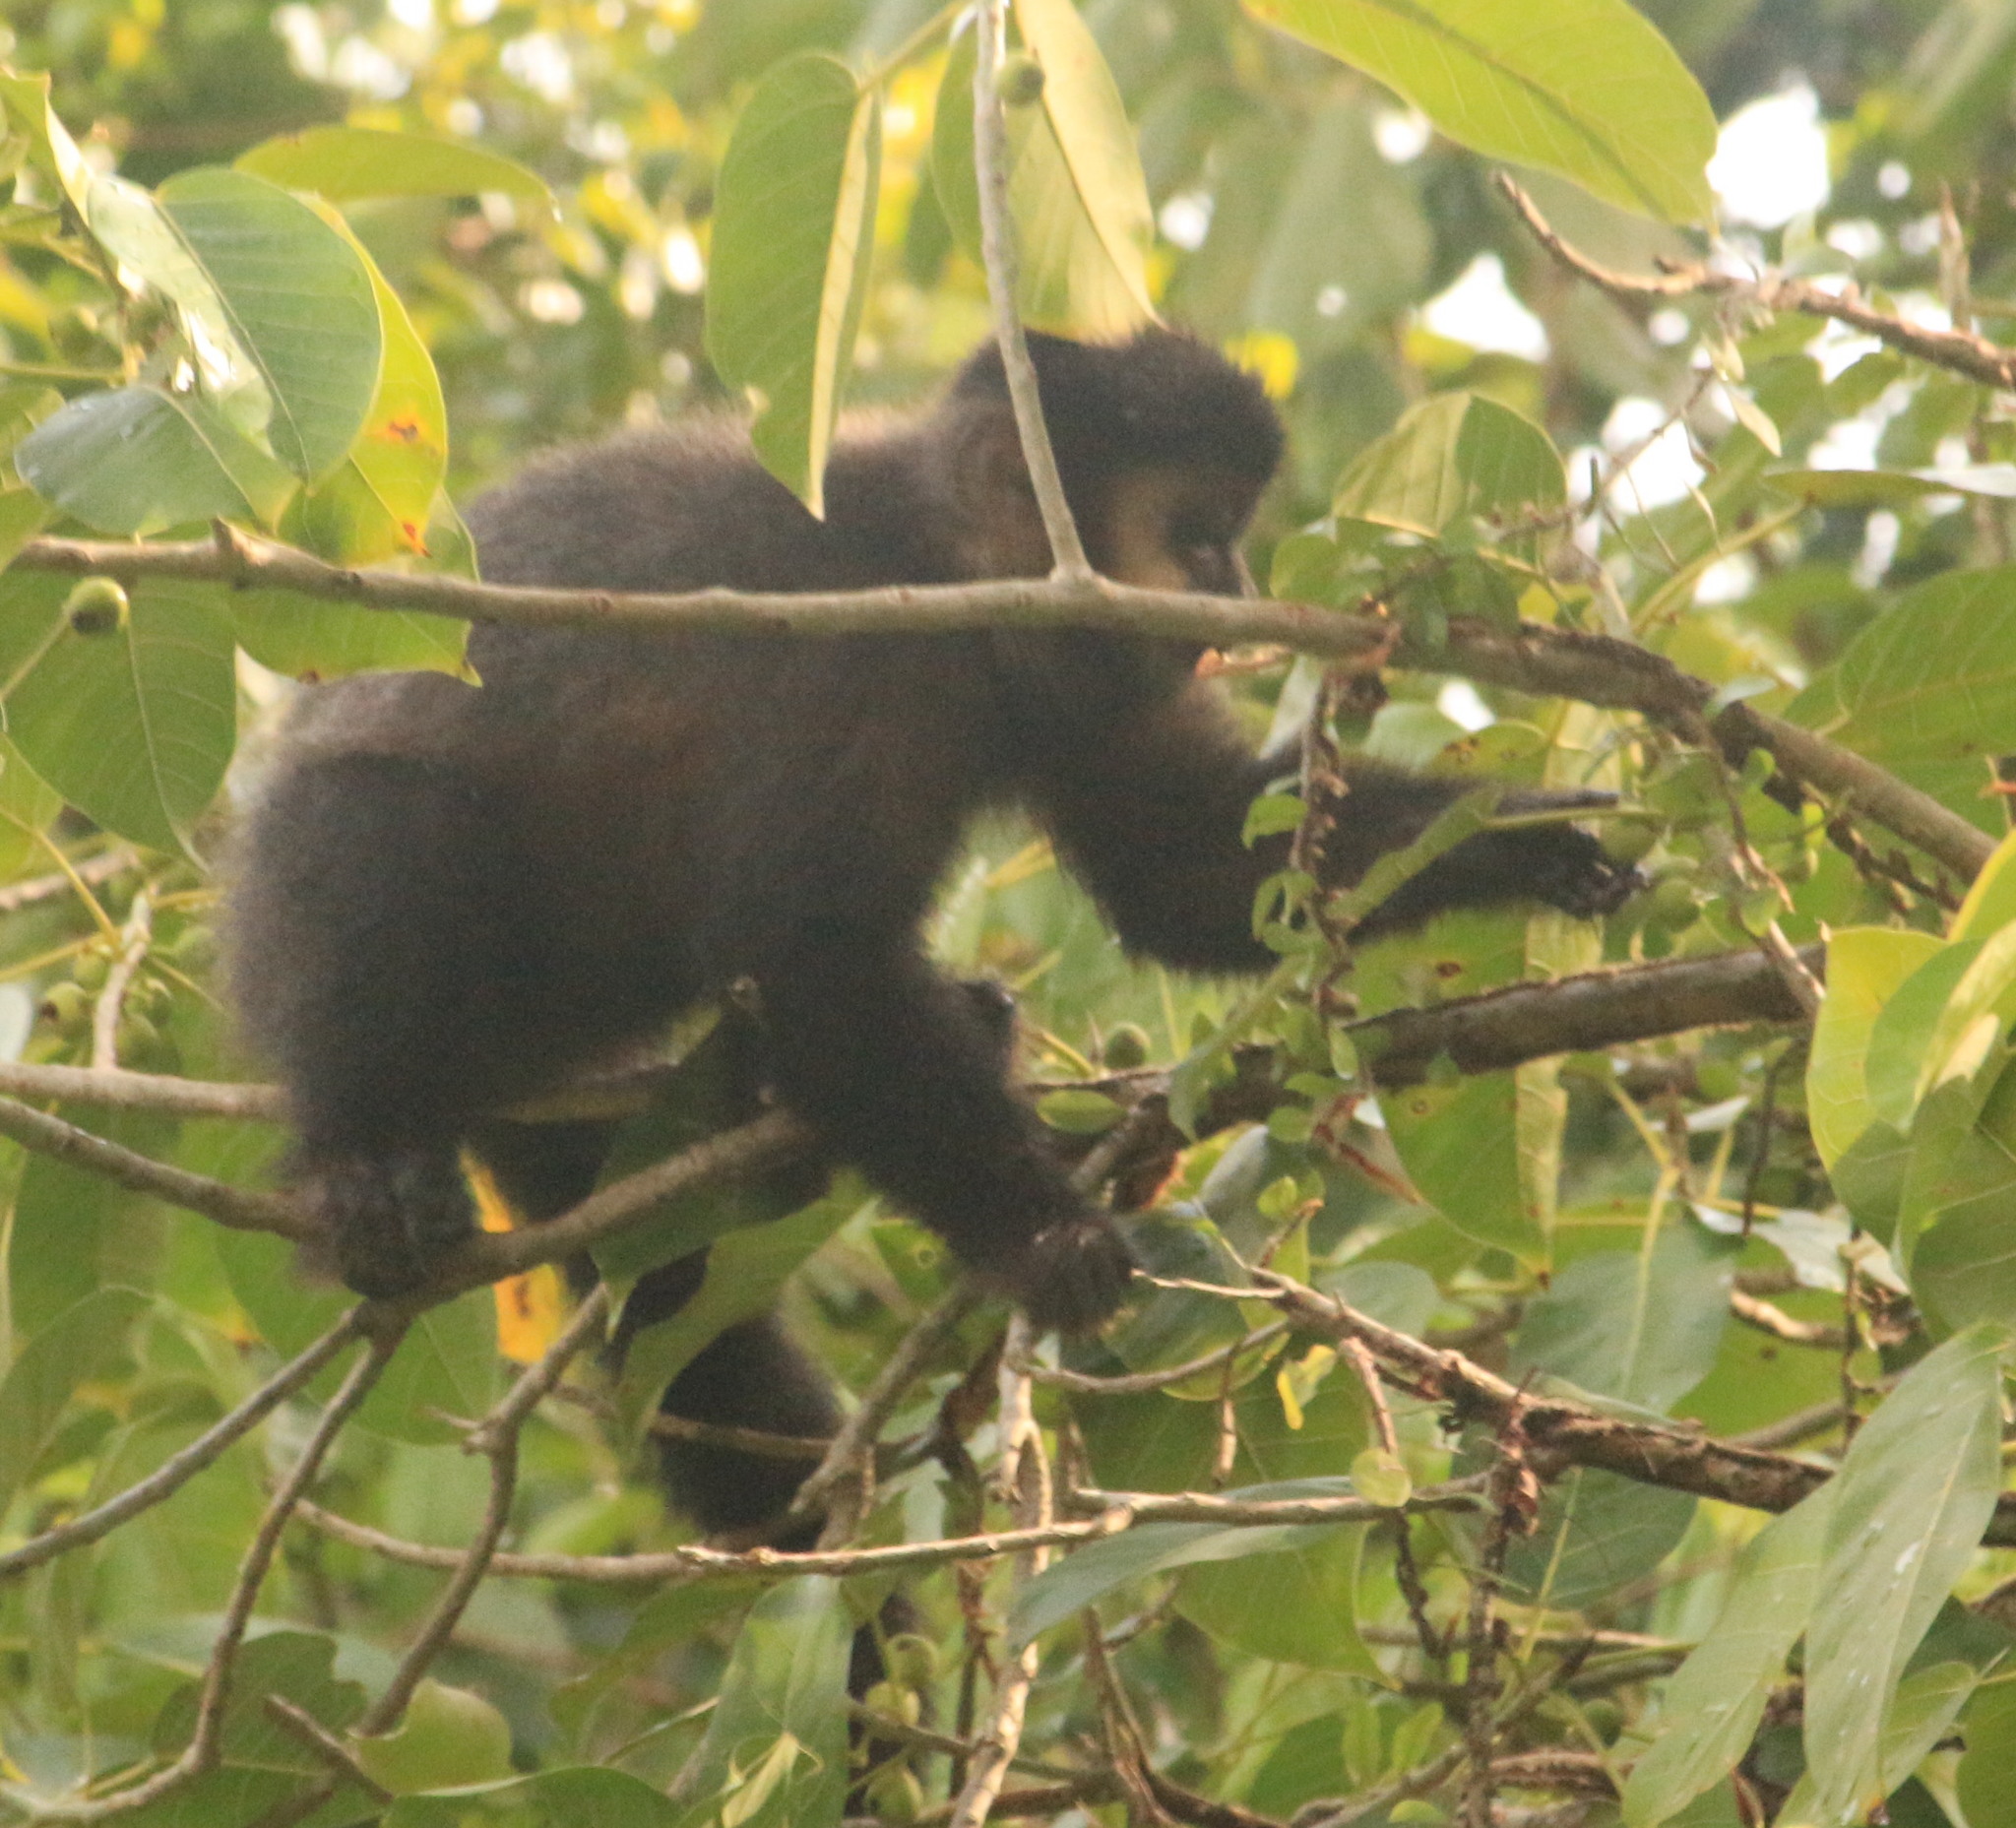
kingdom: Animalia
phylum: Chordata
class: Mammalia
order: Primates
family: Cebidae
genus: Sapajus
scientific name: Sapajus nigritus
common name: Black capuchin
